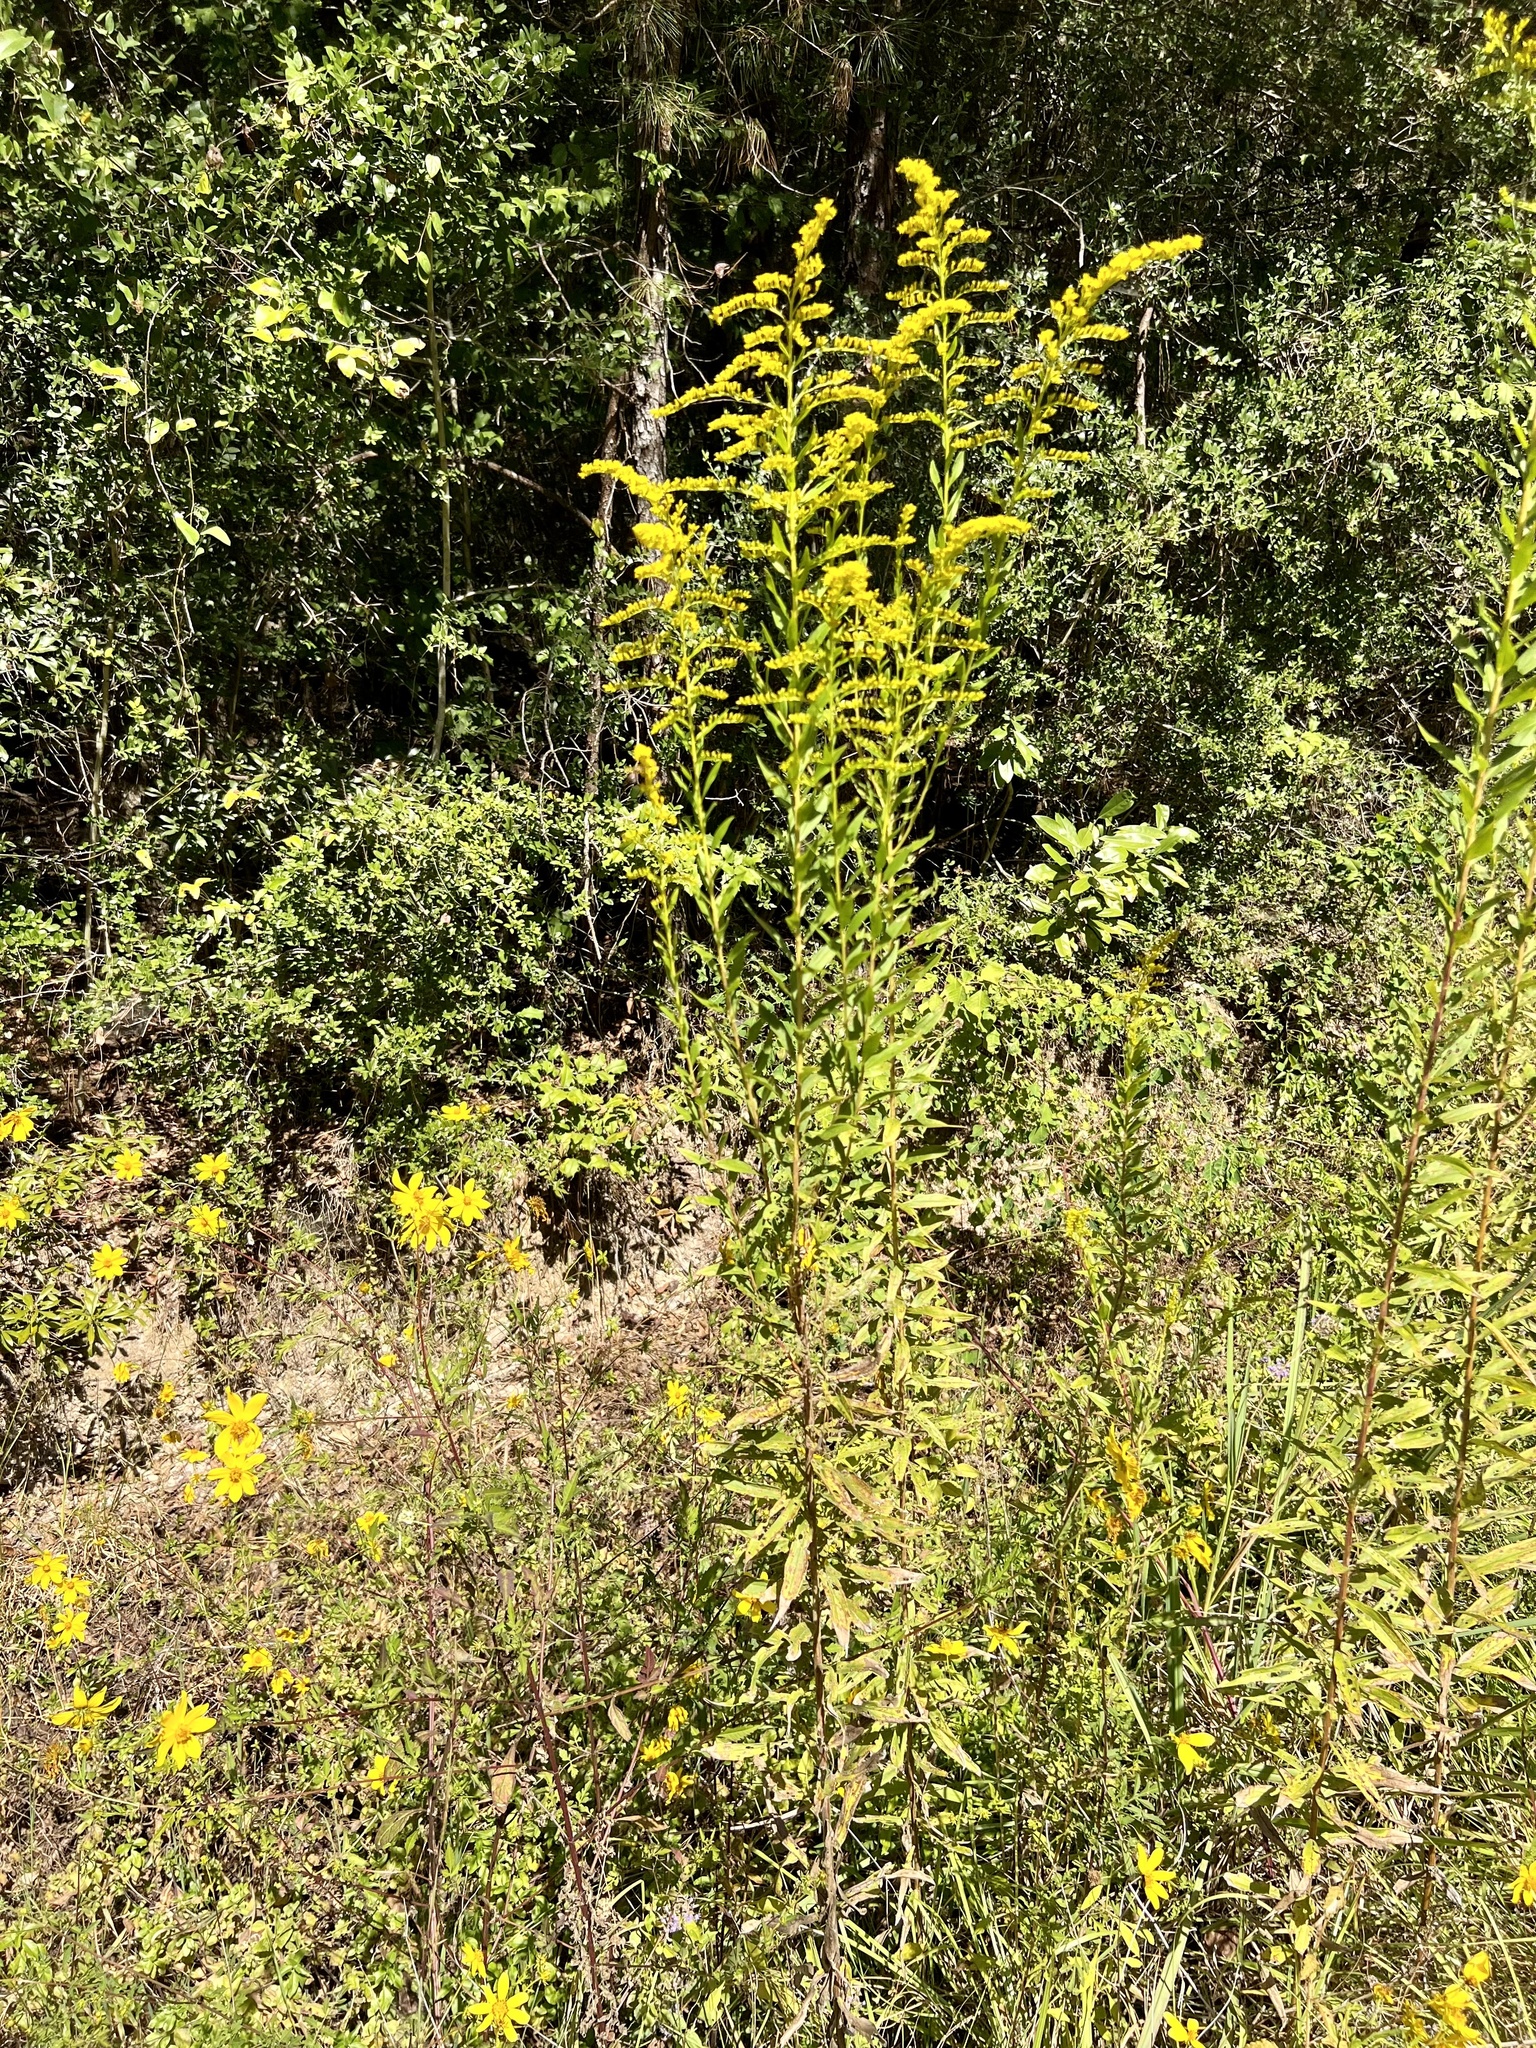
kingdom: Plantae
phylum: Tracheophyta
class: Magnoliopsida
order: Asterales
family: Asteraceae
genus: Solidago
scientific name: Solidago altissima
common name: Late goldenrod
